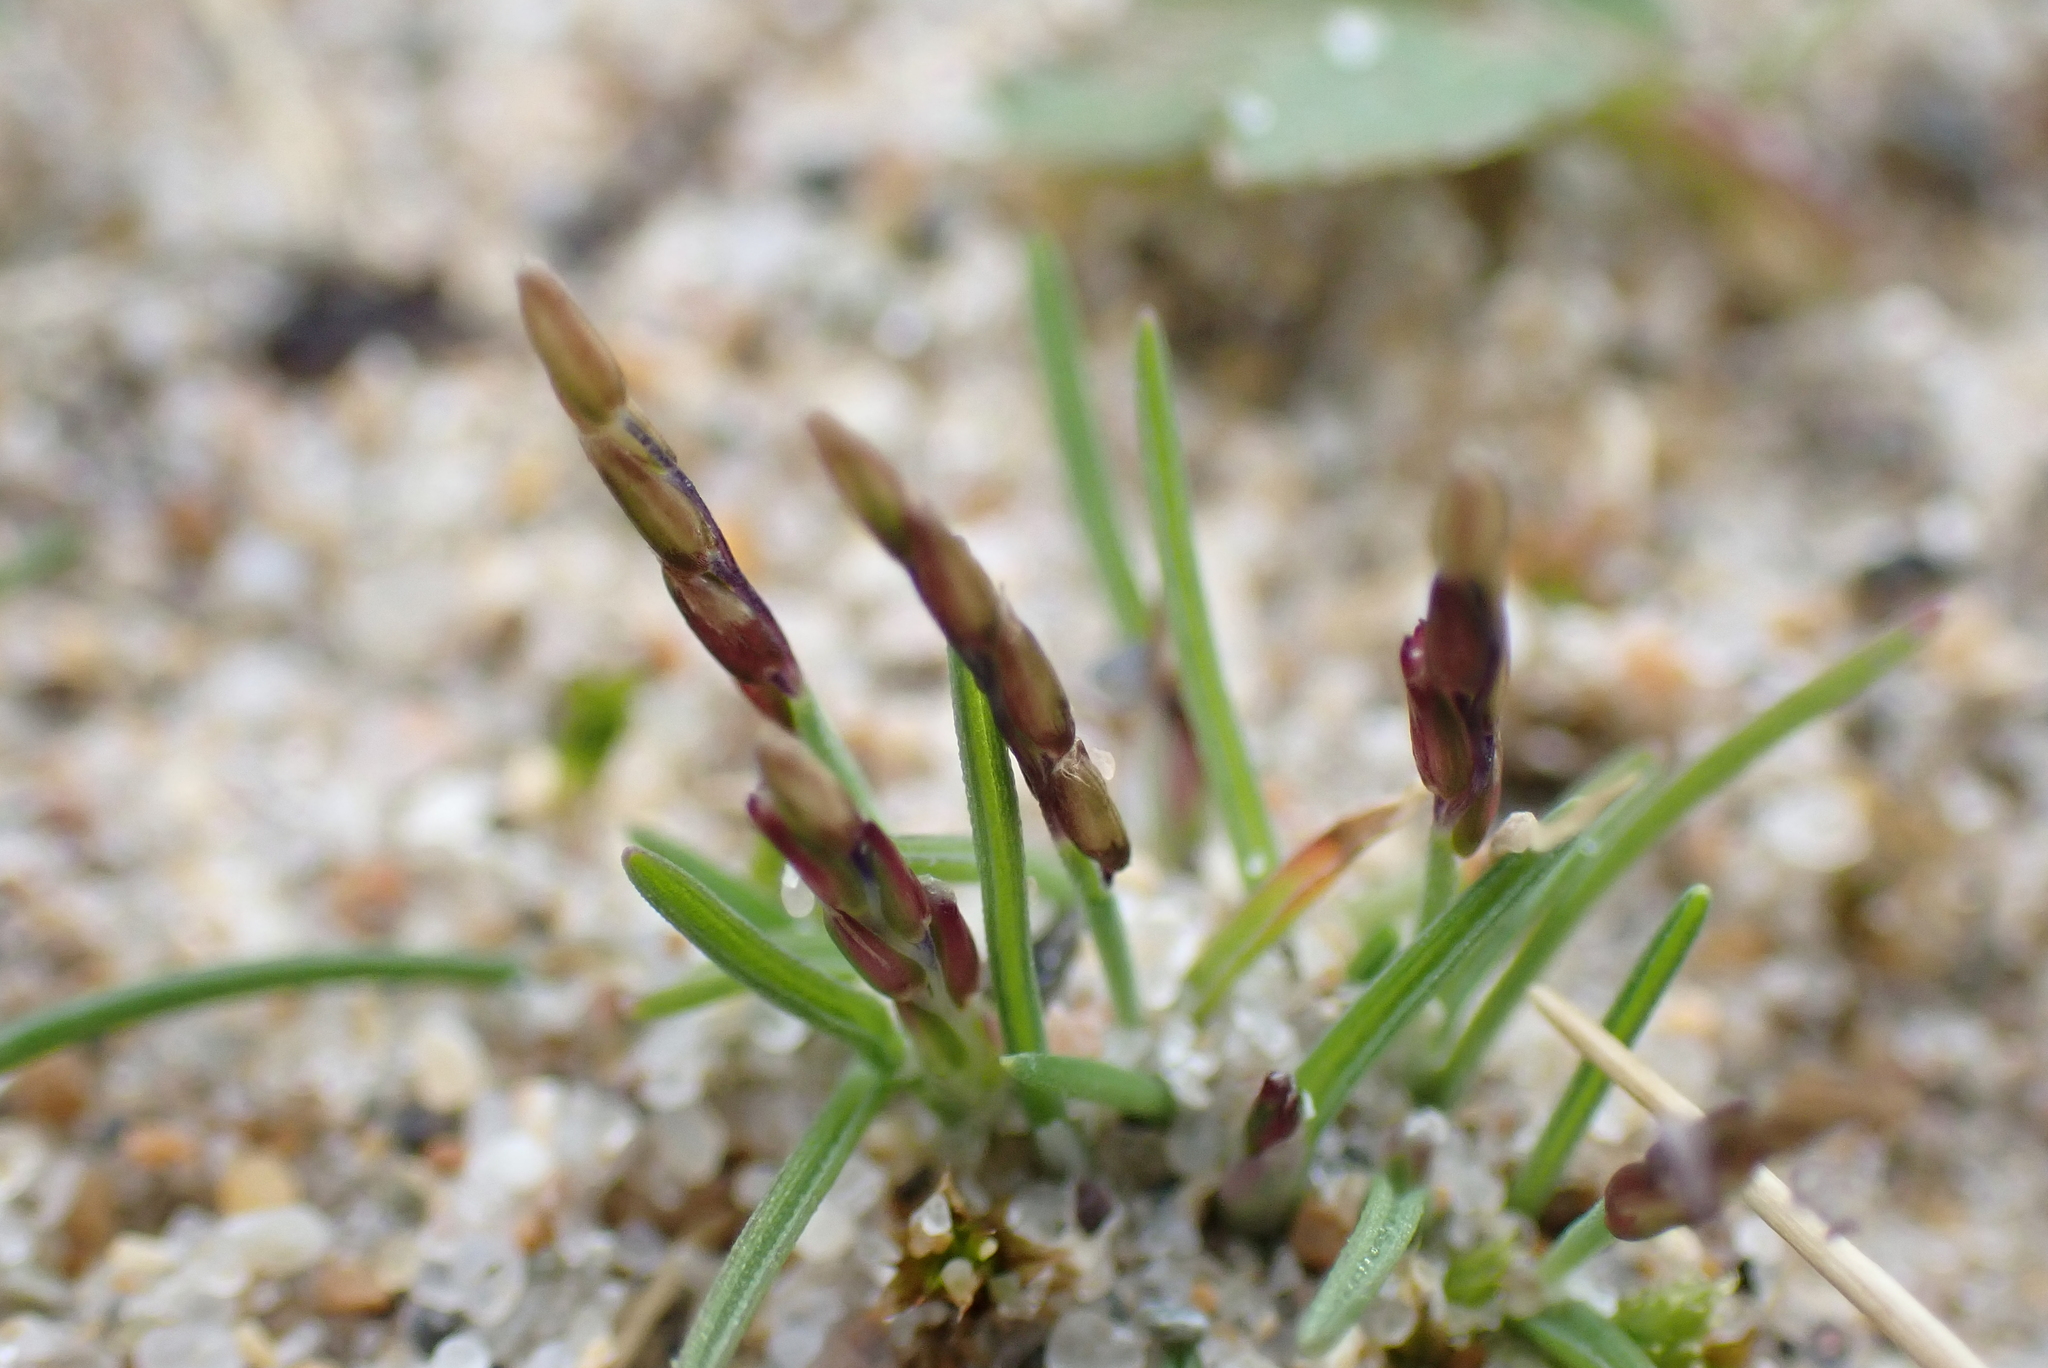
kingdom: Plantae
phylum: Tracheophyta
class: Liliopsida
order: Poales
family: Poaceae
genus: Mibora
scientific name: Mibora minima
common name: Early sand-grass
